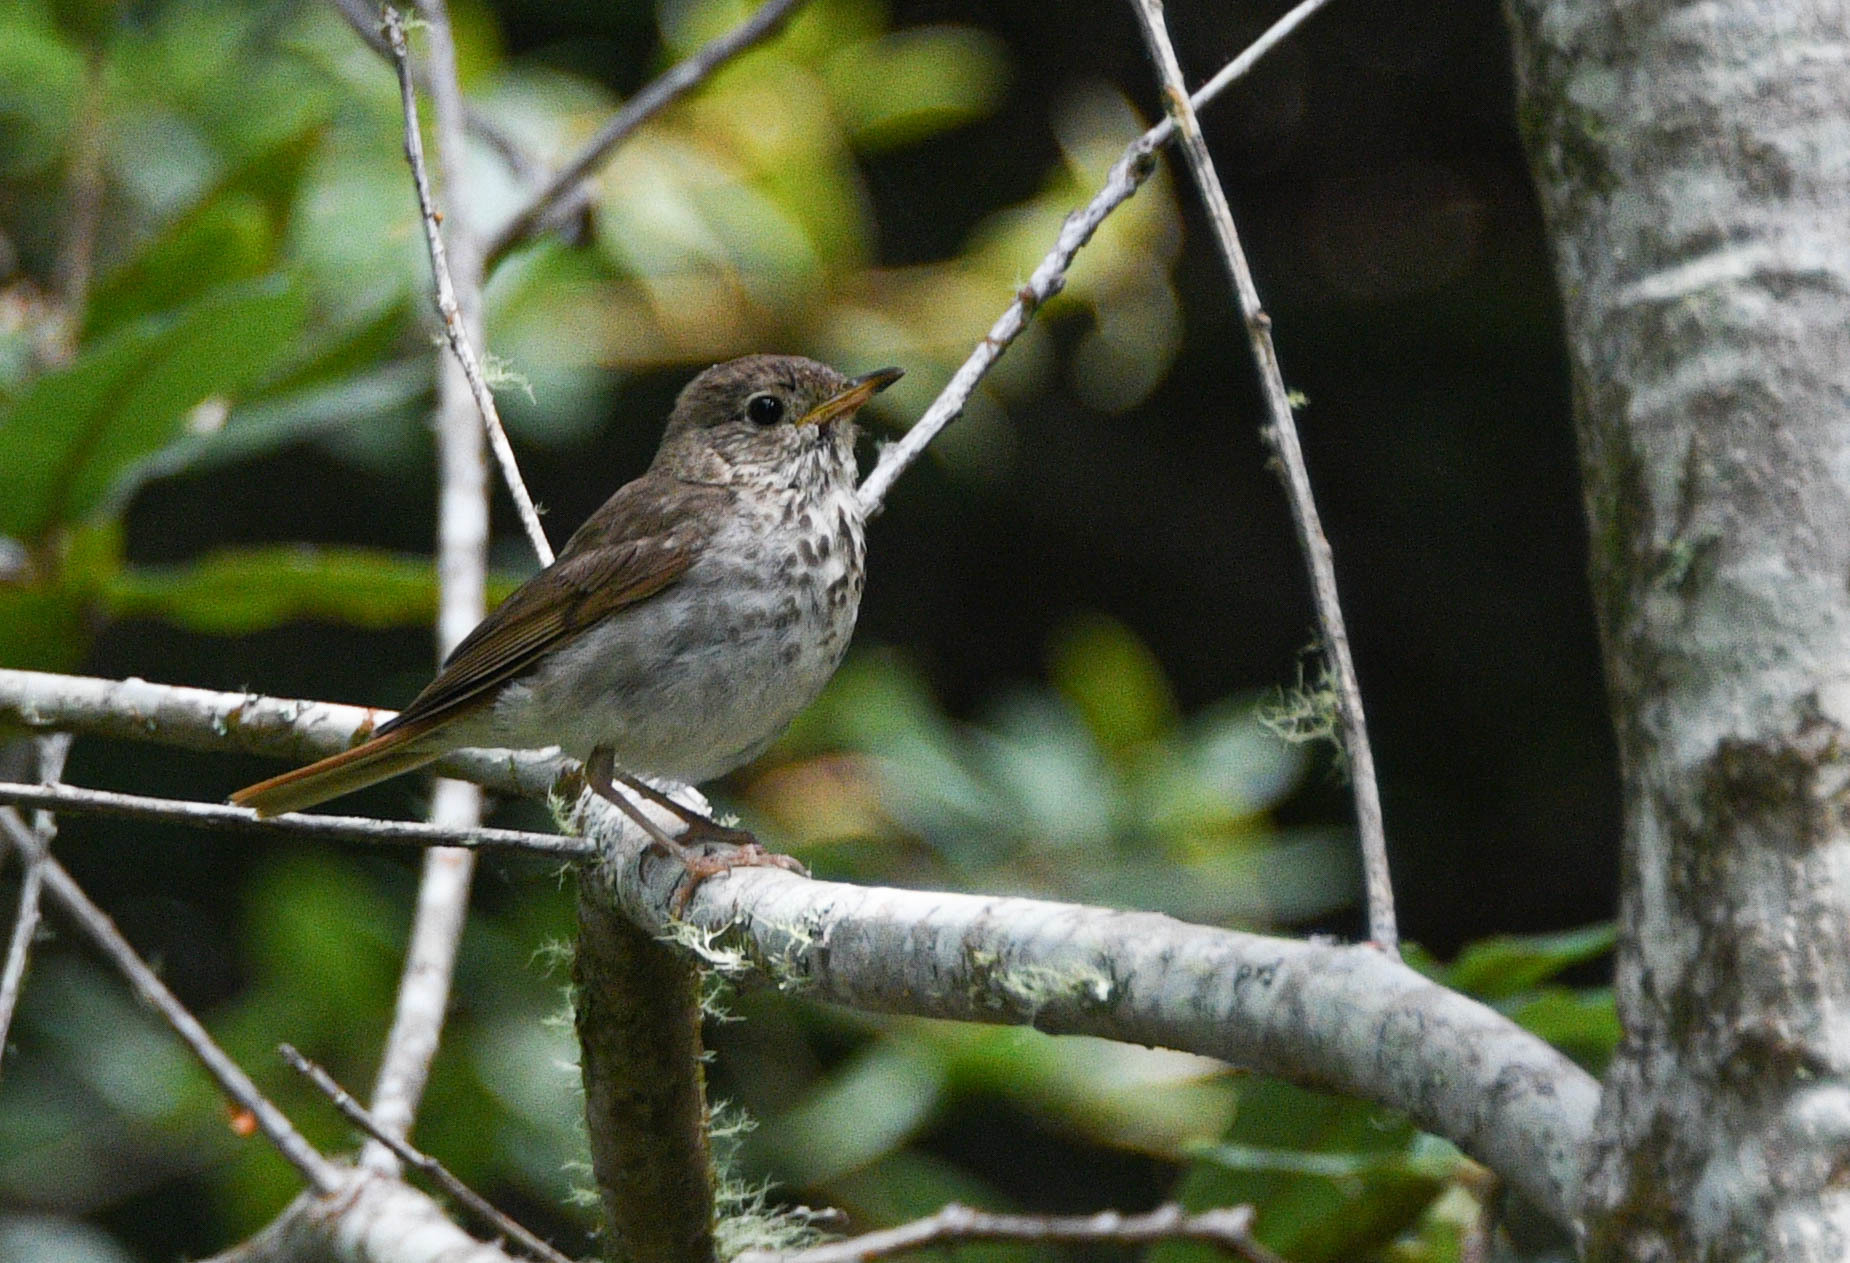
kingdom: Animalia
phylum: Chordata
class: Aves
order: Passeriformes
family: Turdidae
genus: Catharus
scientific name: Catharus guttatus
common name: Hermit thrush
